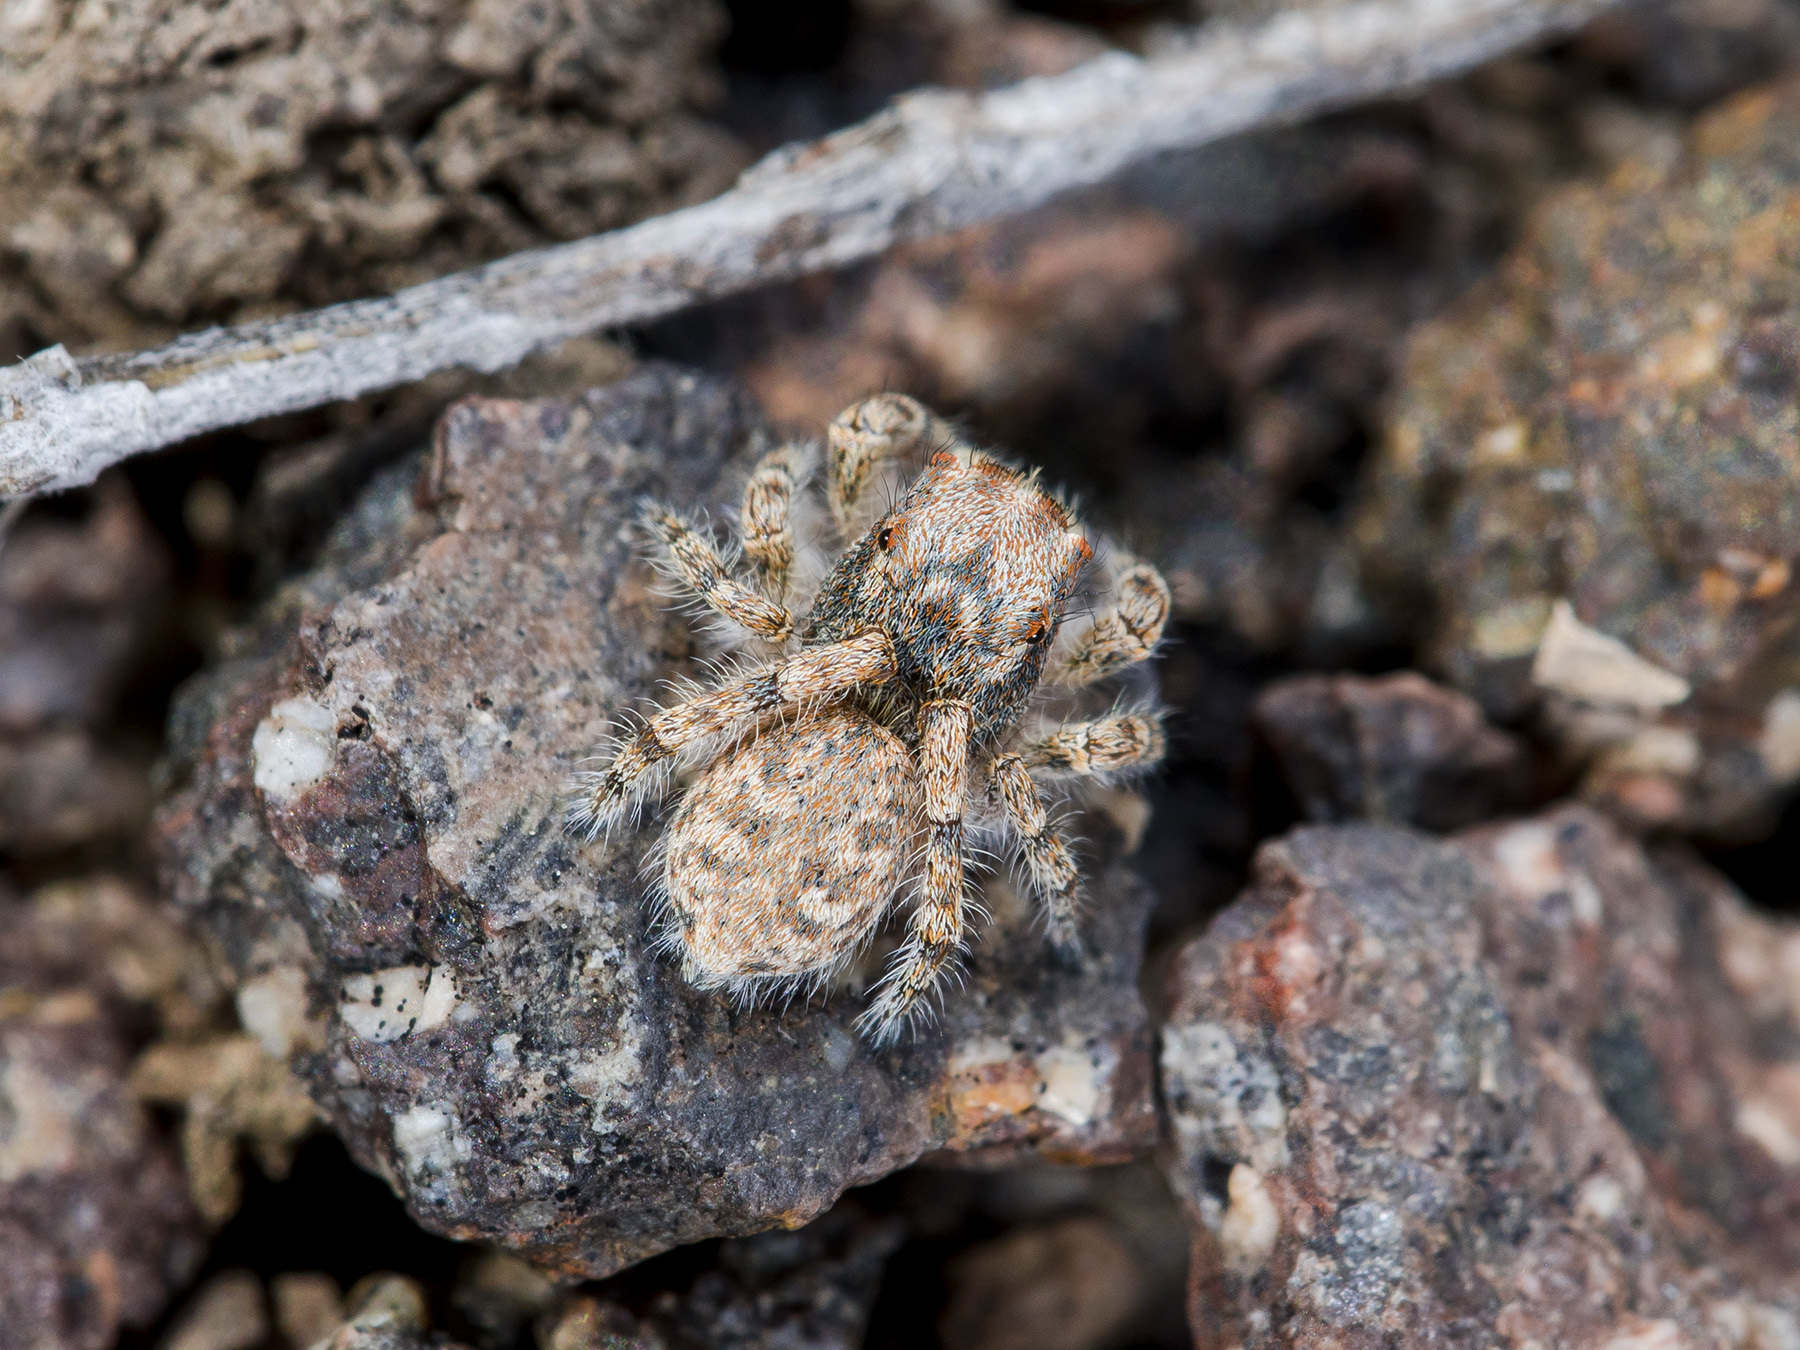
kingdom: Animalia
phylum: Arthropoda
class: Arachnida
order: Araneae
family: Salticidae
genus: Yllenus
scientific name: Yllenus charynensis
